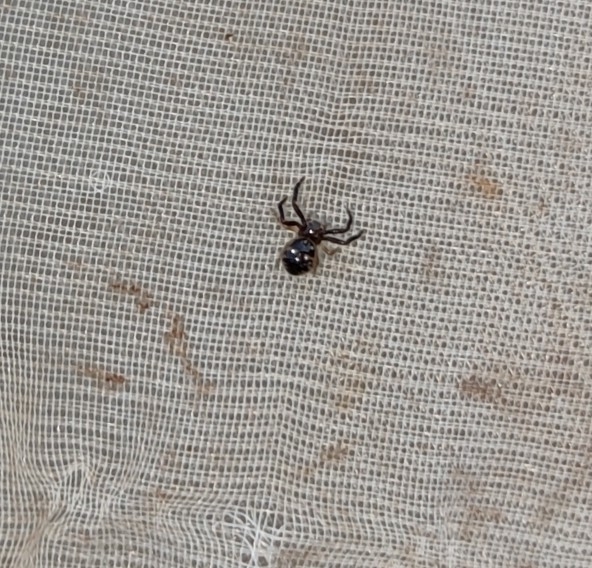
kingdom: Animalia
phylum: Arthropoda
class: Arachnida
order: Araneae
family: Thomisidae
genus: Synema
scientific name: Synema globosum
